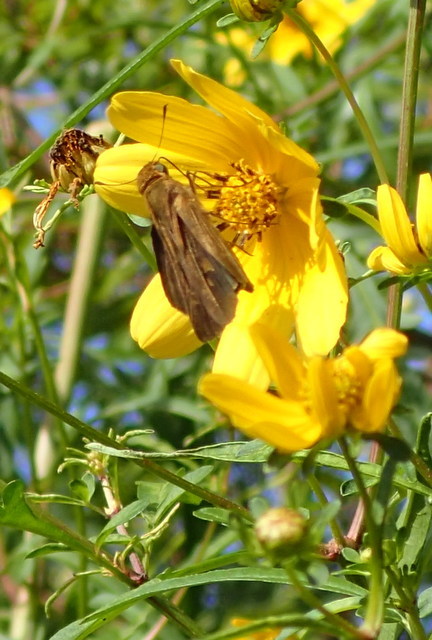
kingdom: Animalia
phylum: Arthropoda
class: Insecta
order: Lepidoptera
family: Hesperiidae
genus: Panoquina
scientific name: Panoquina ocola
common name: Ocola skipper
